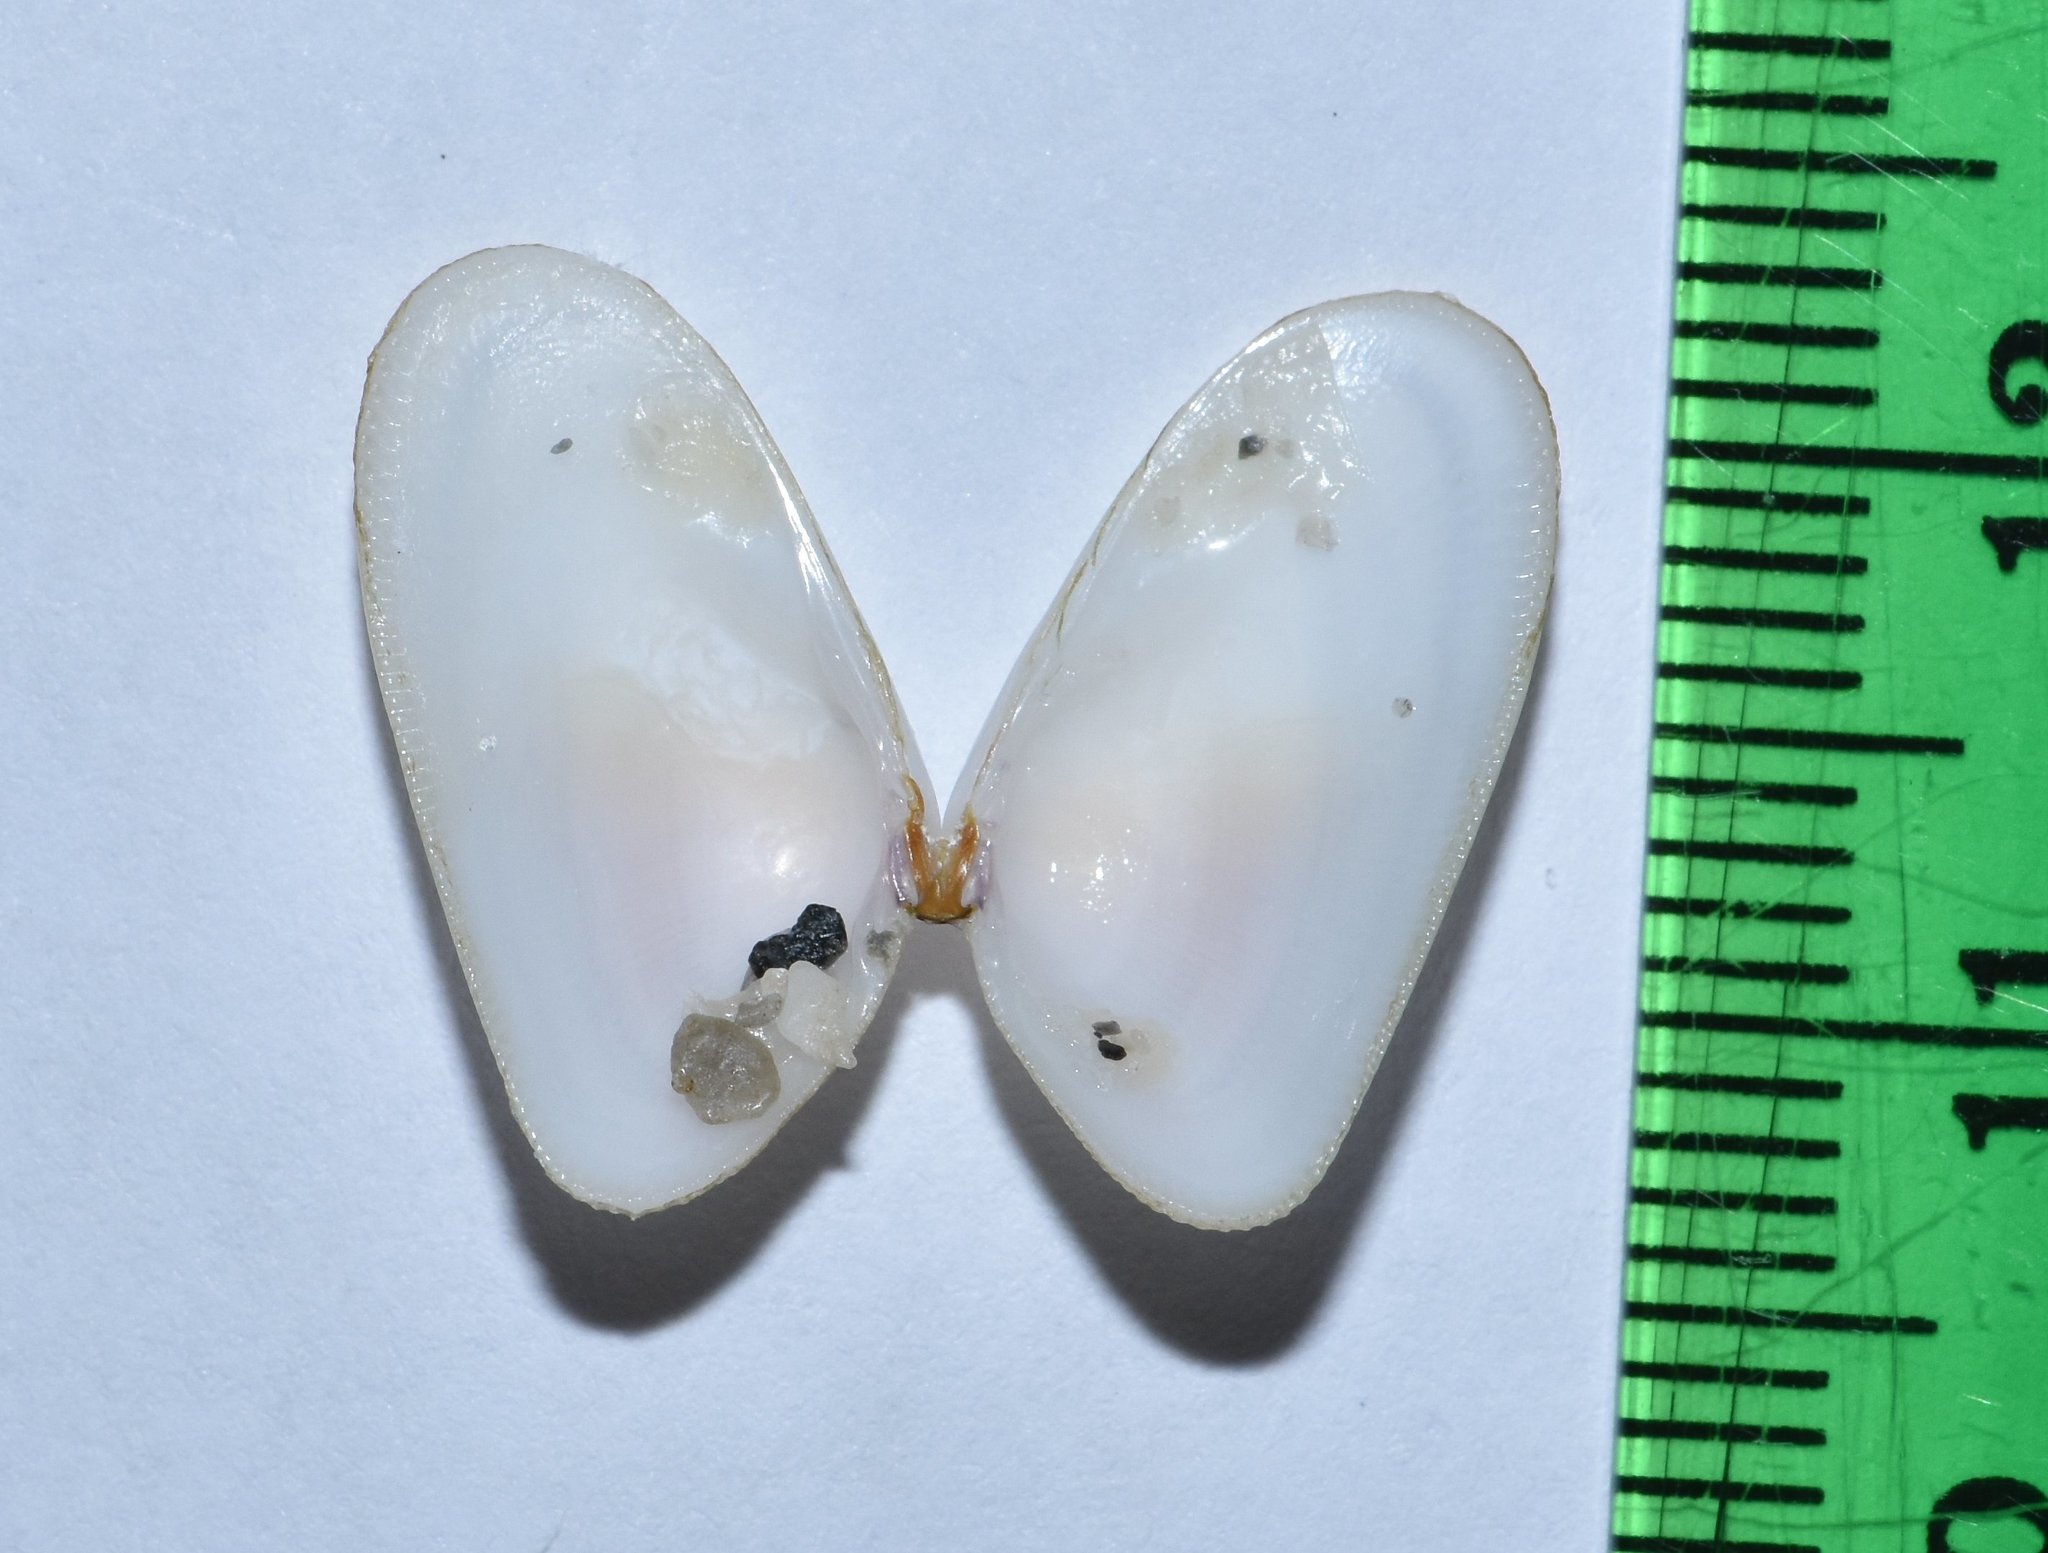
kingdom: Animalia
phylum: Mollusca
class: Bivalvia
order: Cardiida
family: Donacidae
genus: Donax
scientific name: Donax variabilis
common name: Butterfly shell
